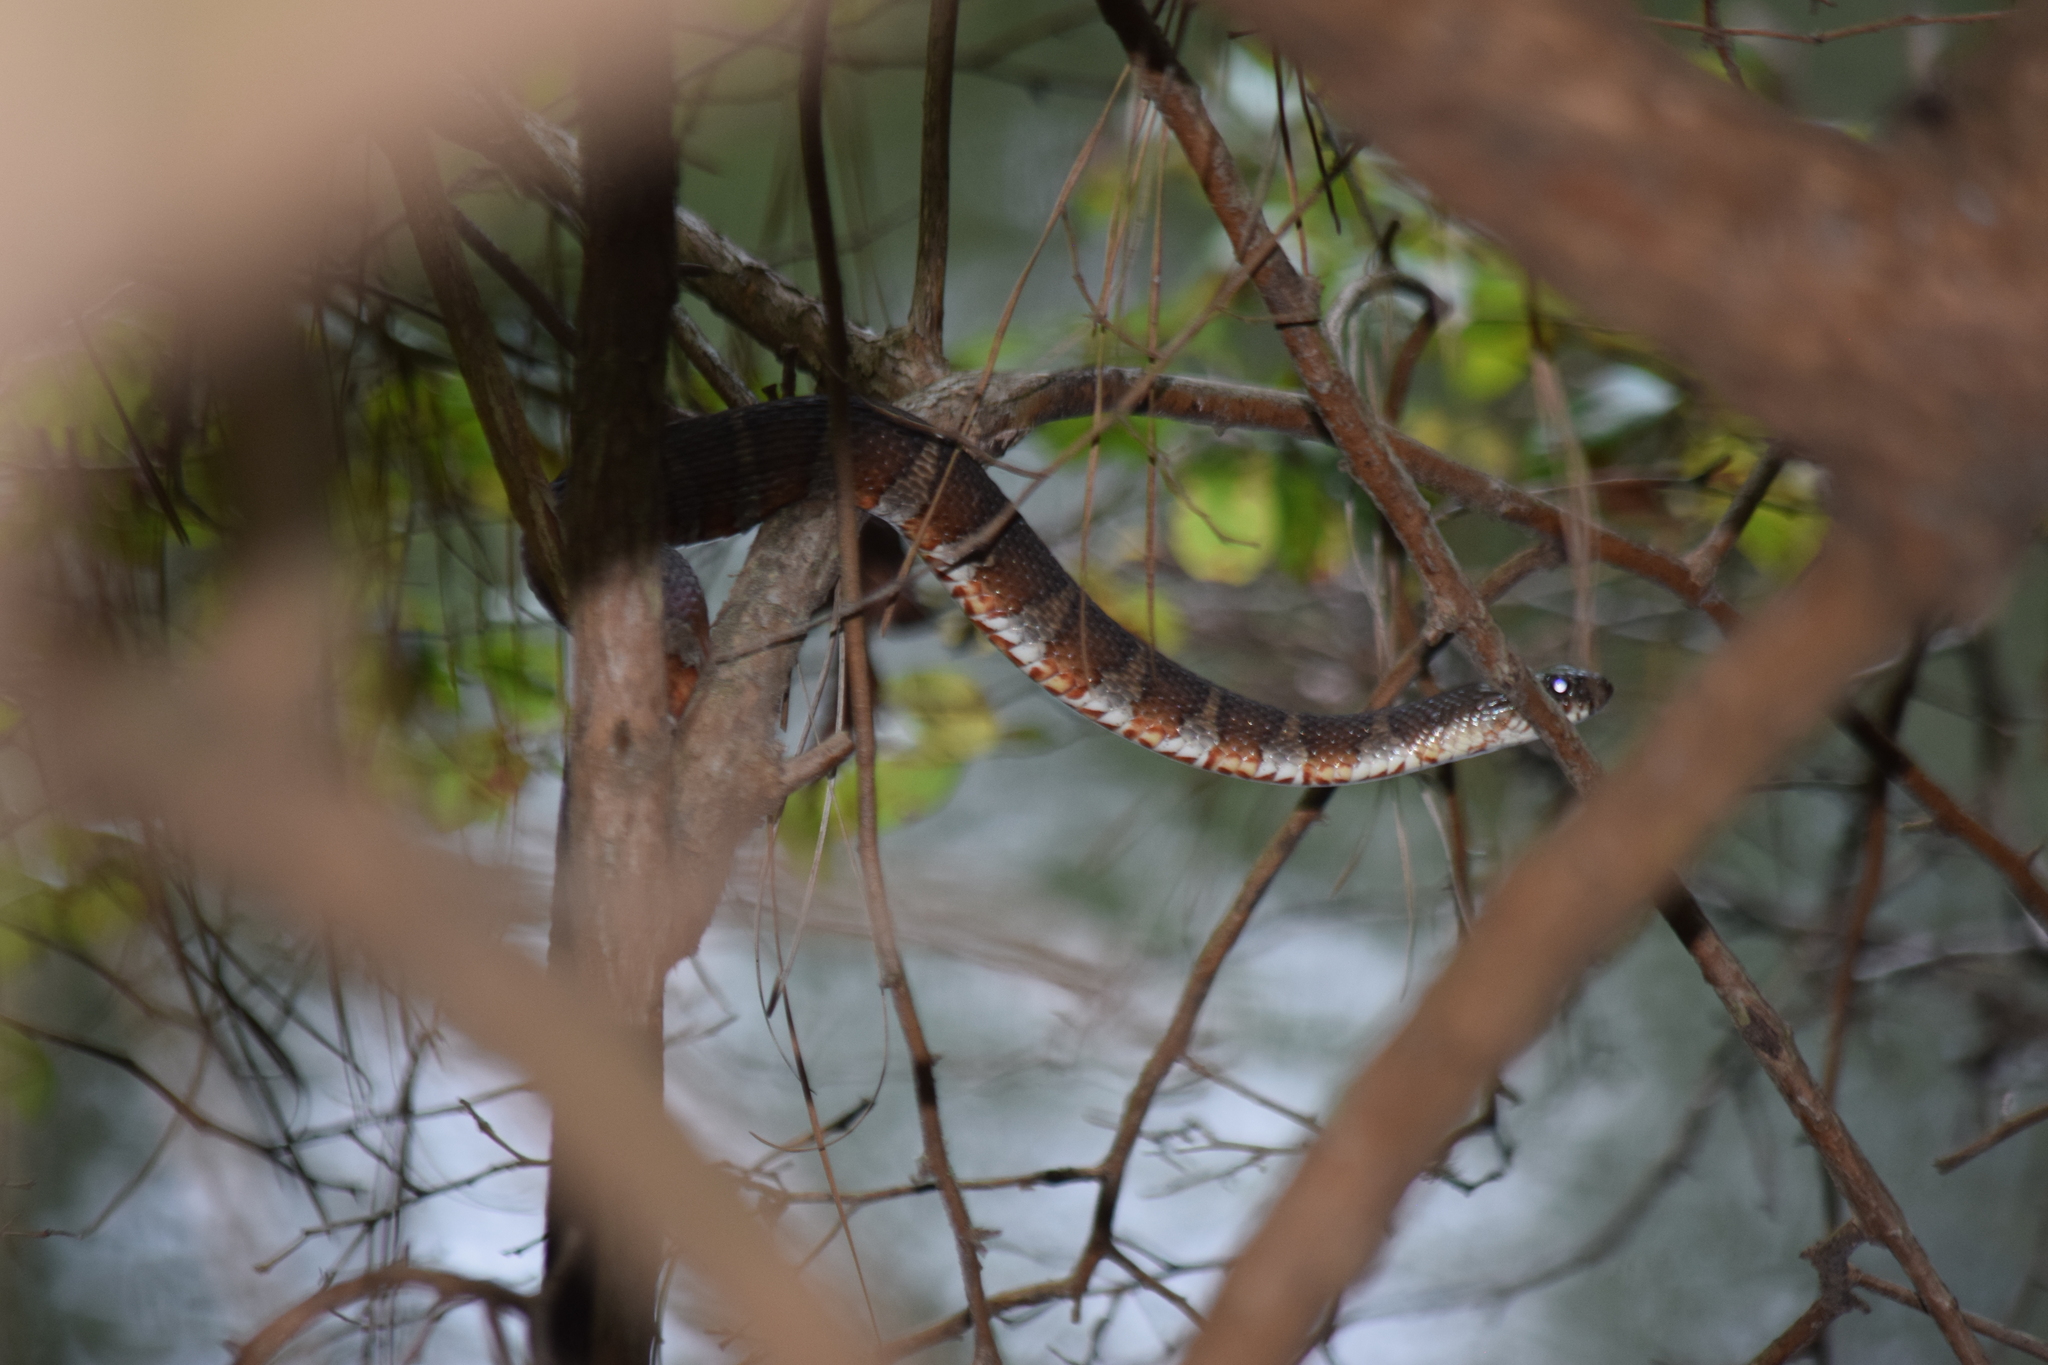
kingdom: Animalia
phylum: Chordata
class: Squamata
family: Colubridae
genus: Nerodia
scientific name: Nerodia sipedon
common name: Northern water snake
